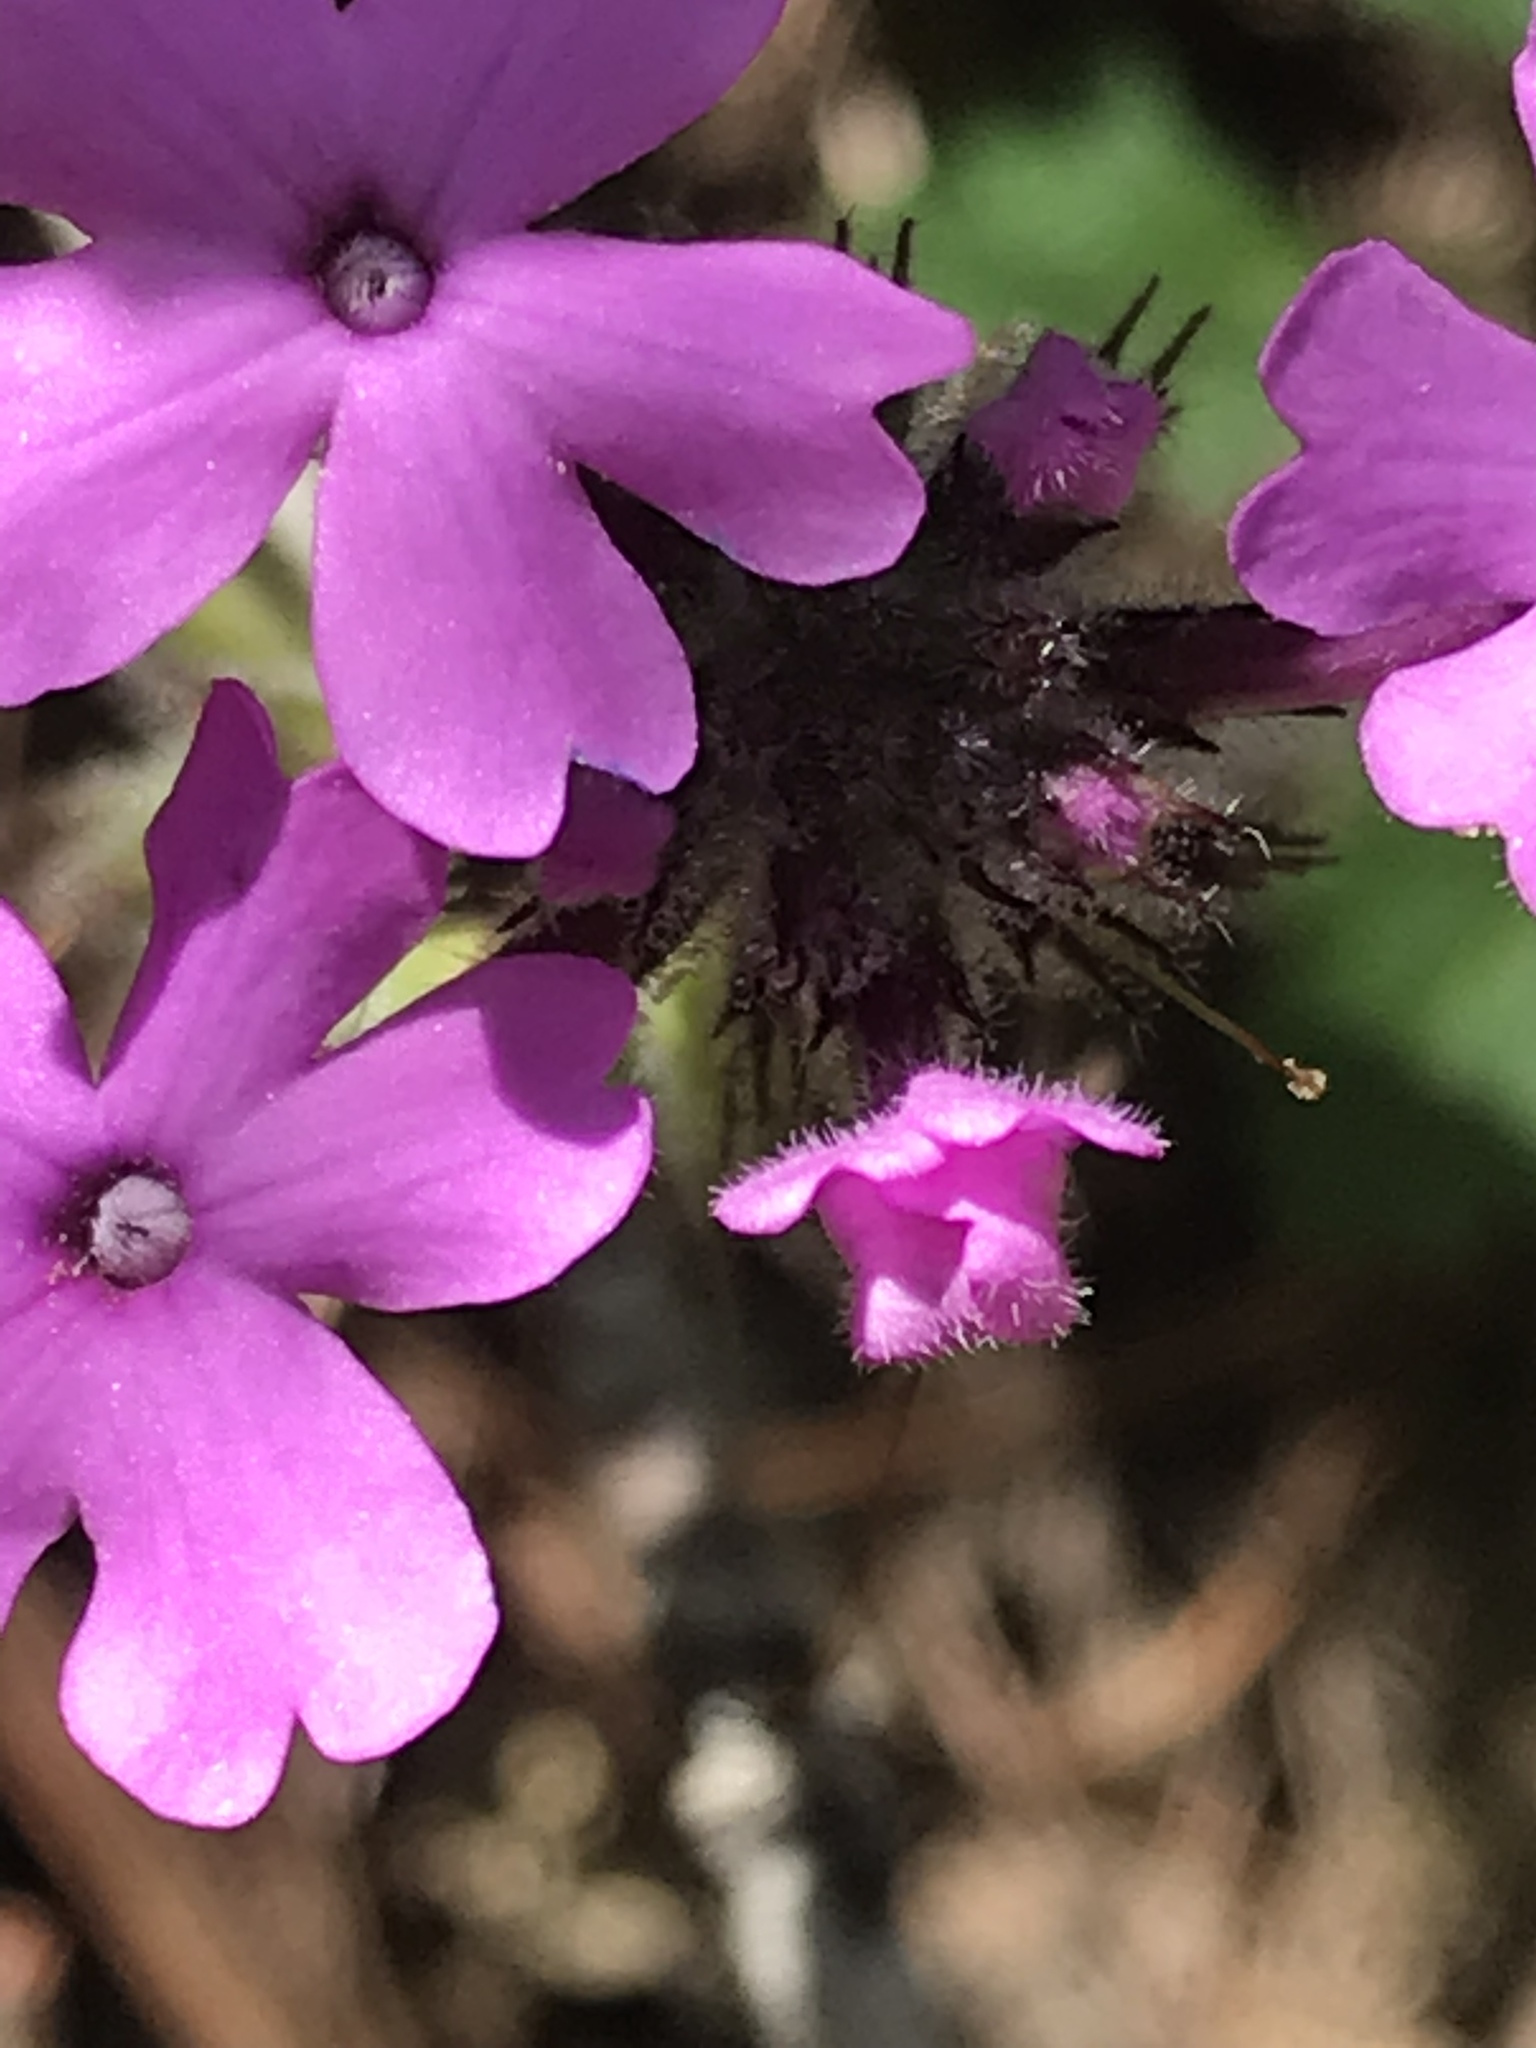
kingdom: Plantae
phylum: Tracheophyta
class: Magnoliopsida
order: Lamiales
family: Verbenaceae
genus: Verbena
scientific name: Verbena canadensis
